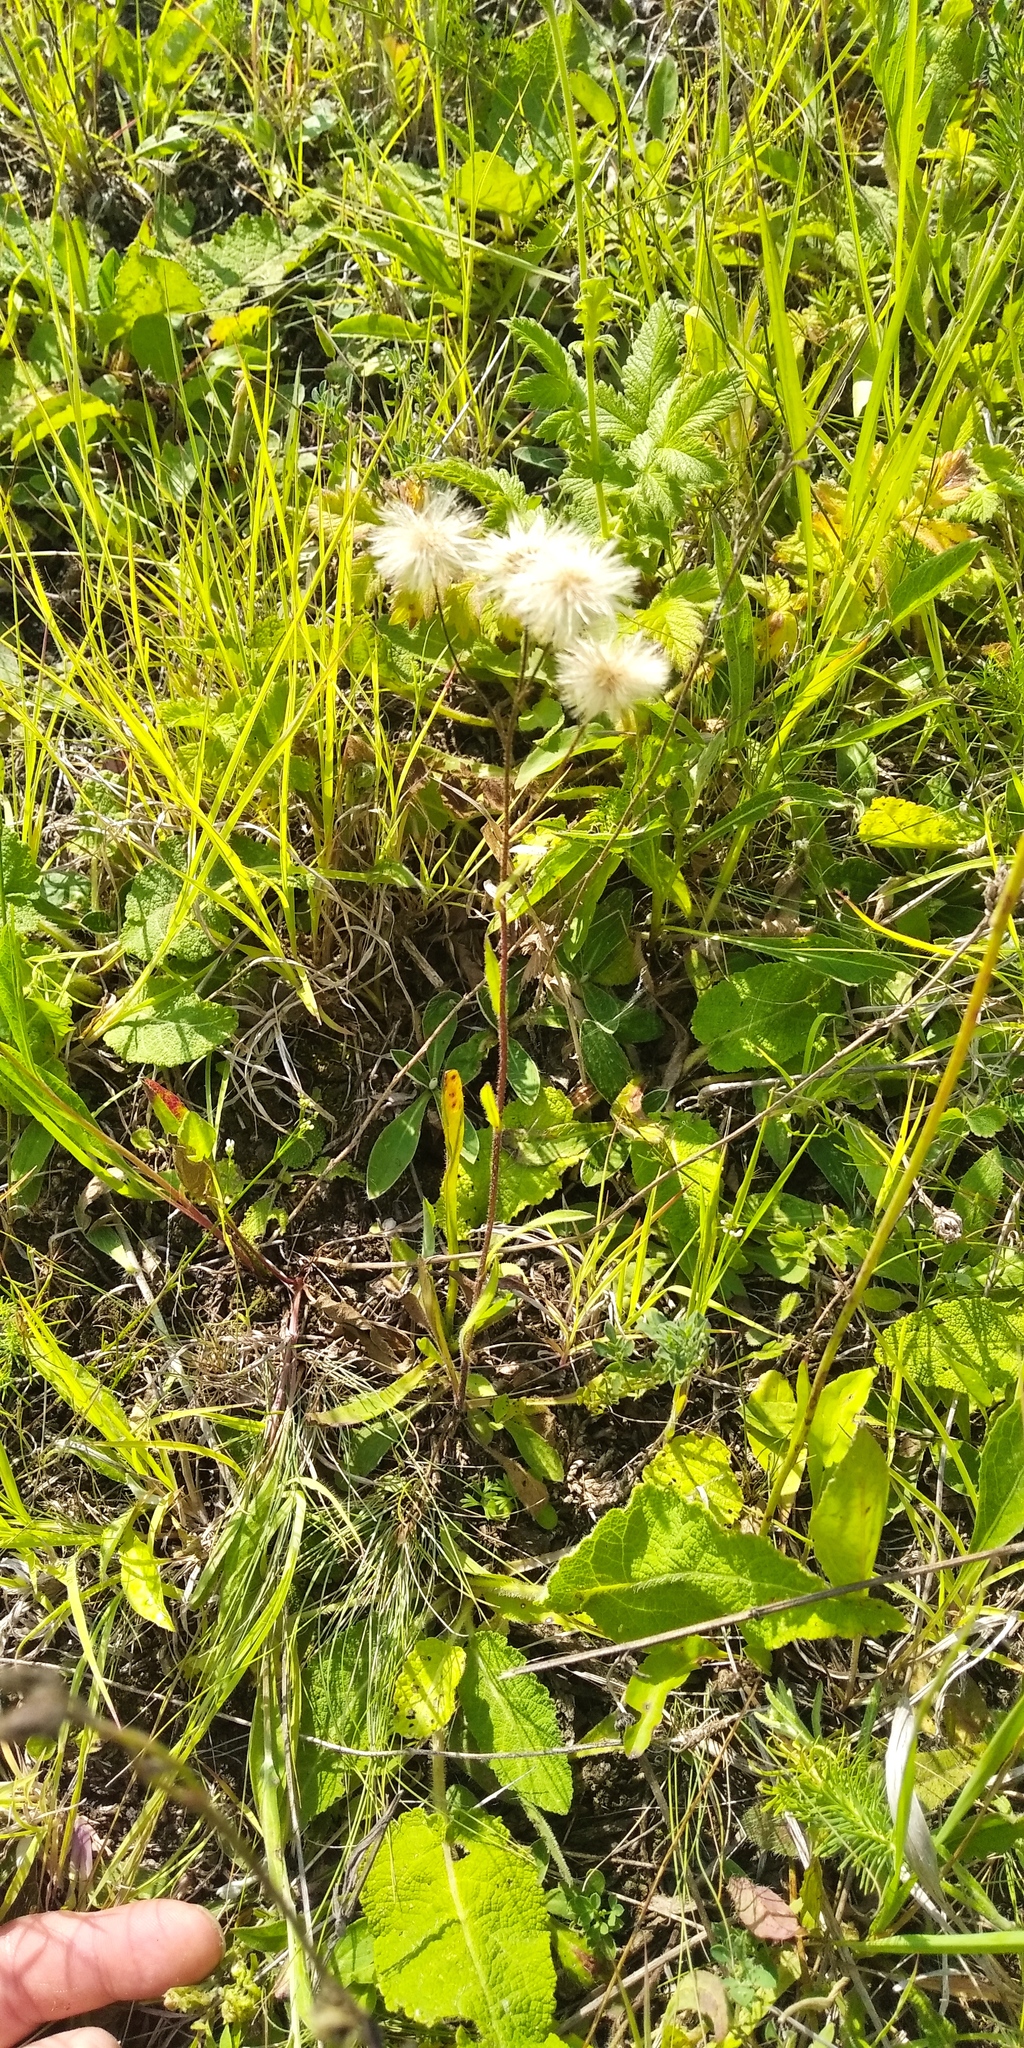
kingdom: Plantae
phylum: Tracheophyta
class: Magnoliopsida
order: Asterales
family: Asteraceae
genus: Erigeron
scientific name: Erigeron acris
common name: Blue fleabane
